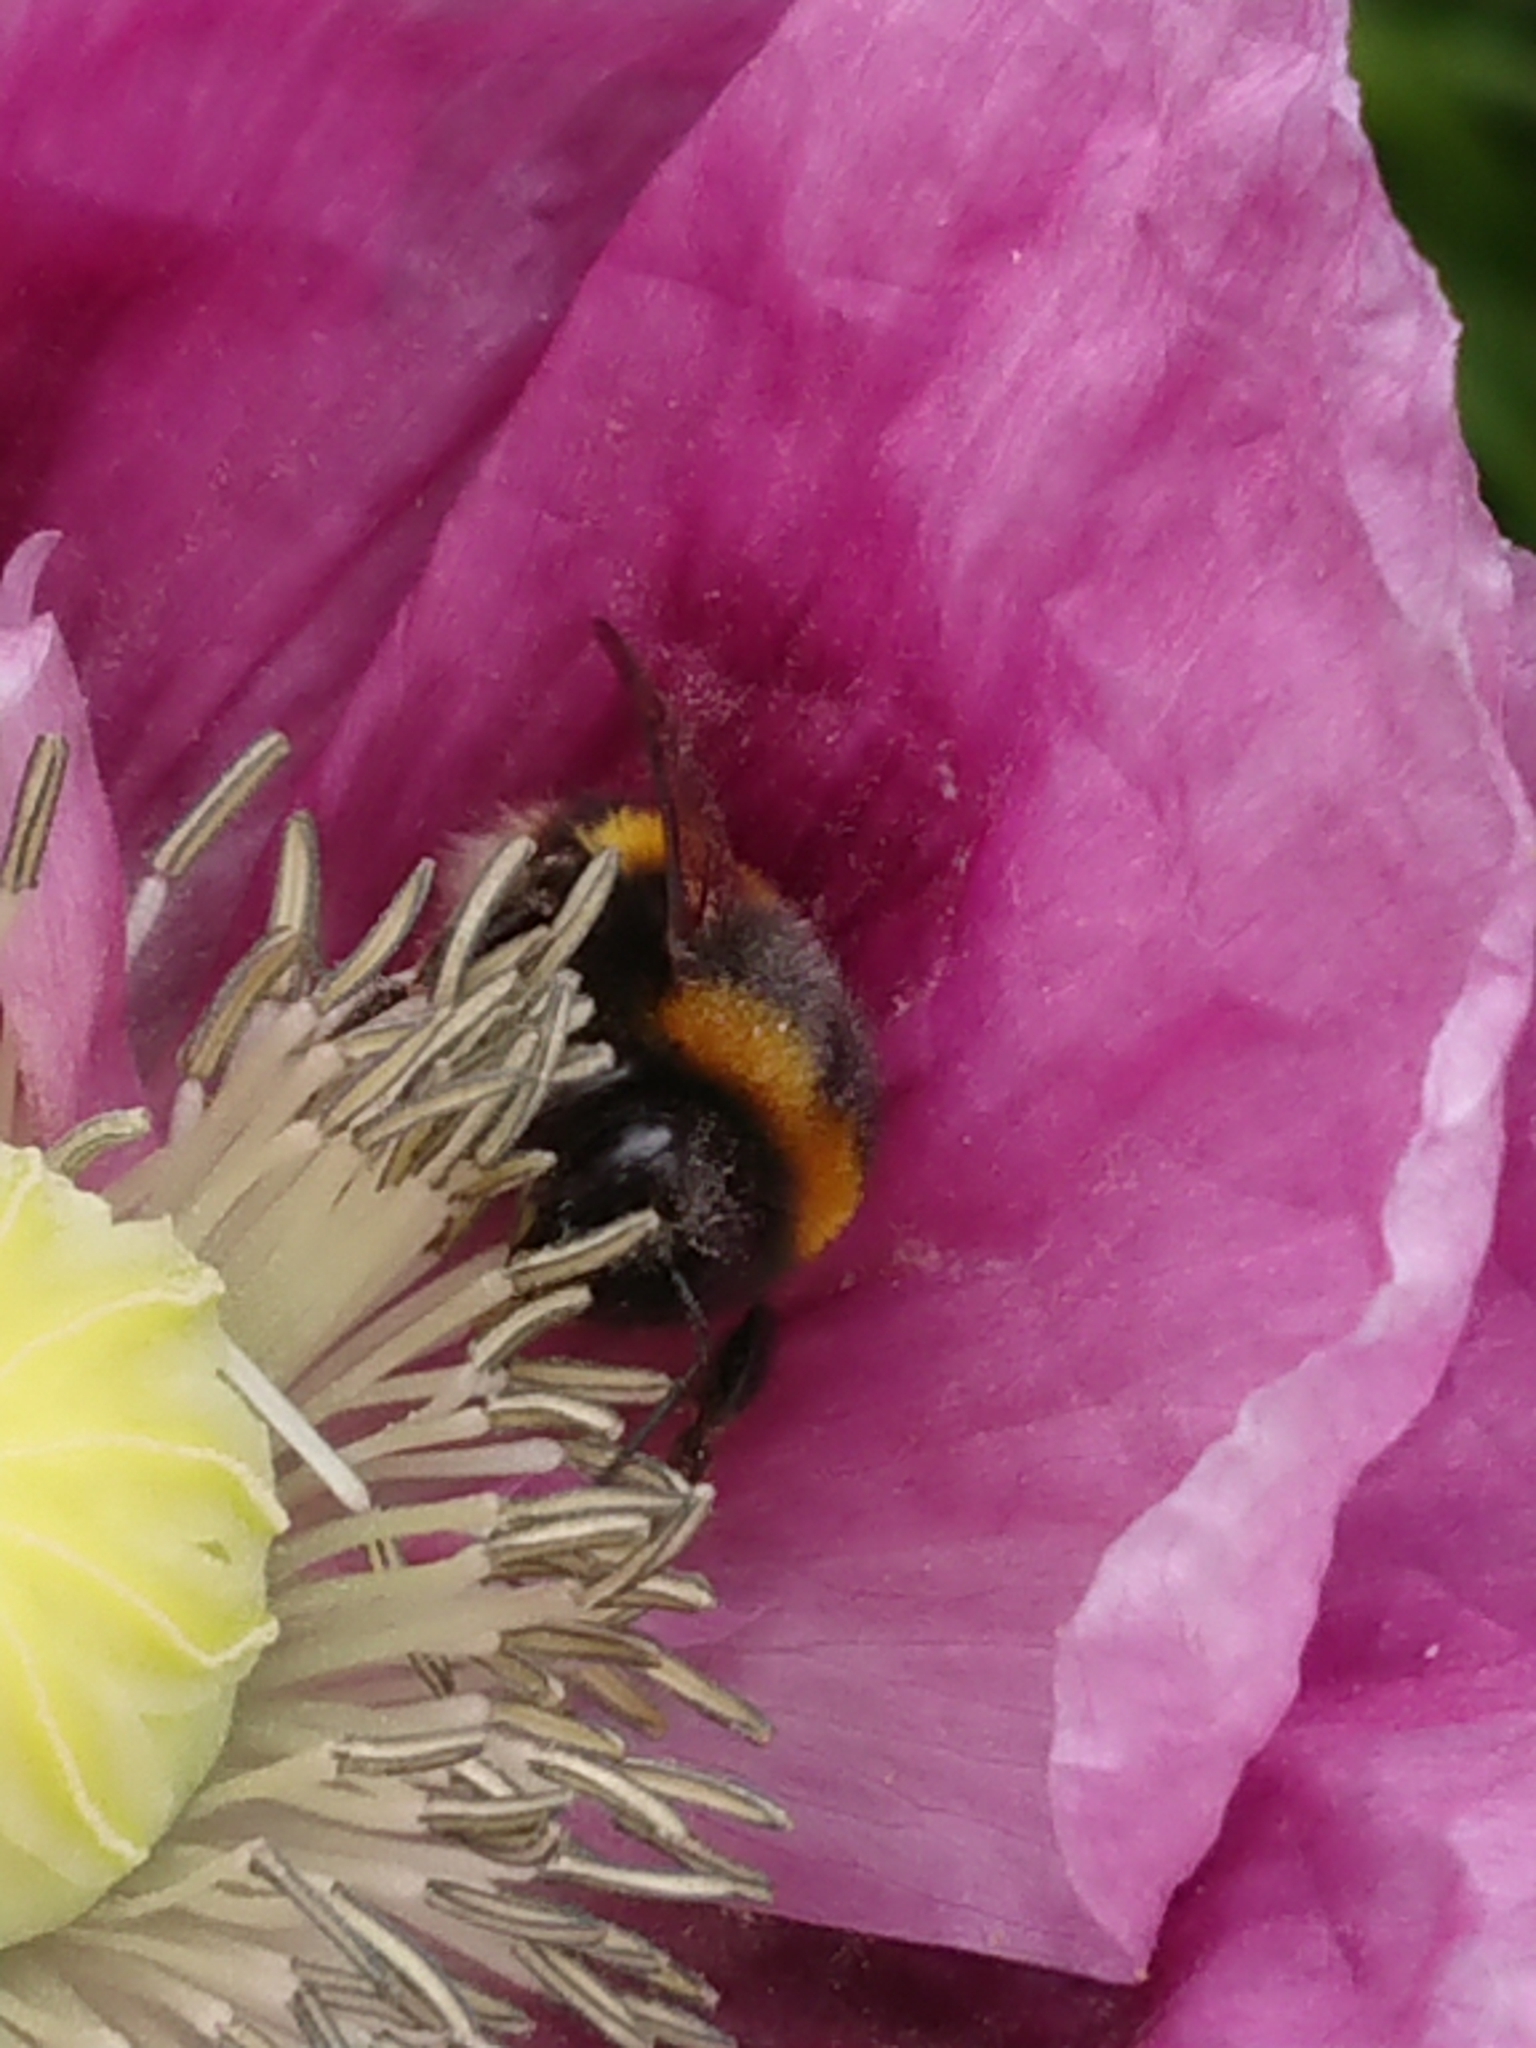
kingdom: Animalia
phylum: Arthropoda
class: Insecta
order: Hymenoptera
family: Apidae
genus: Bombus
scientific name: Bombus terrestris
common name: Buff-tailed bumblebee
